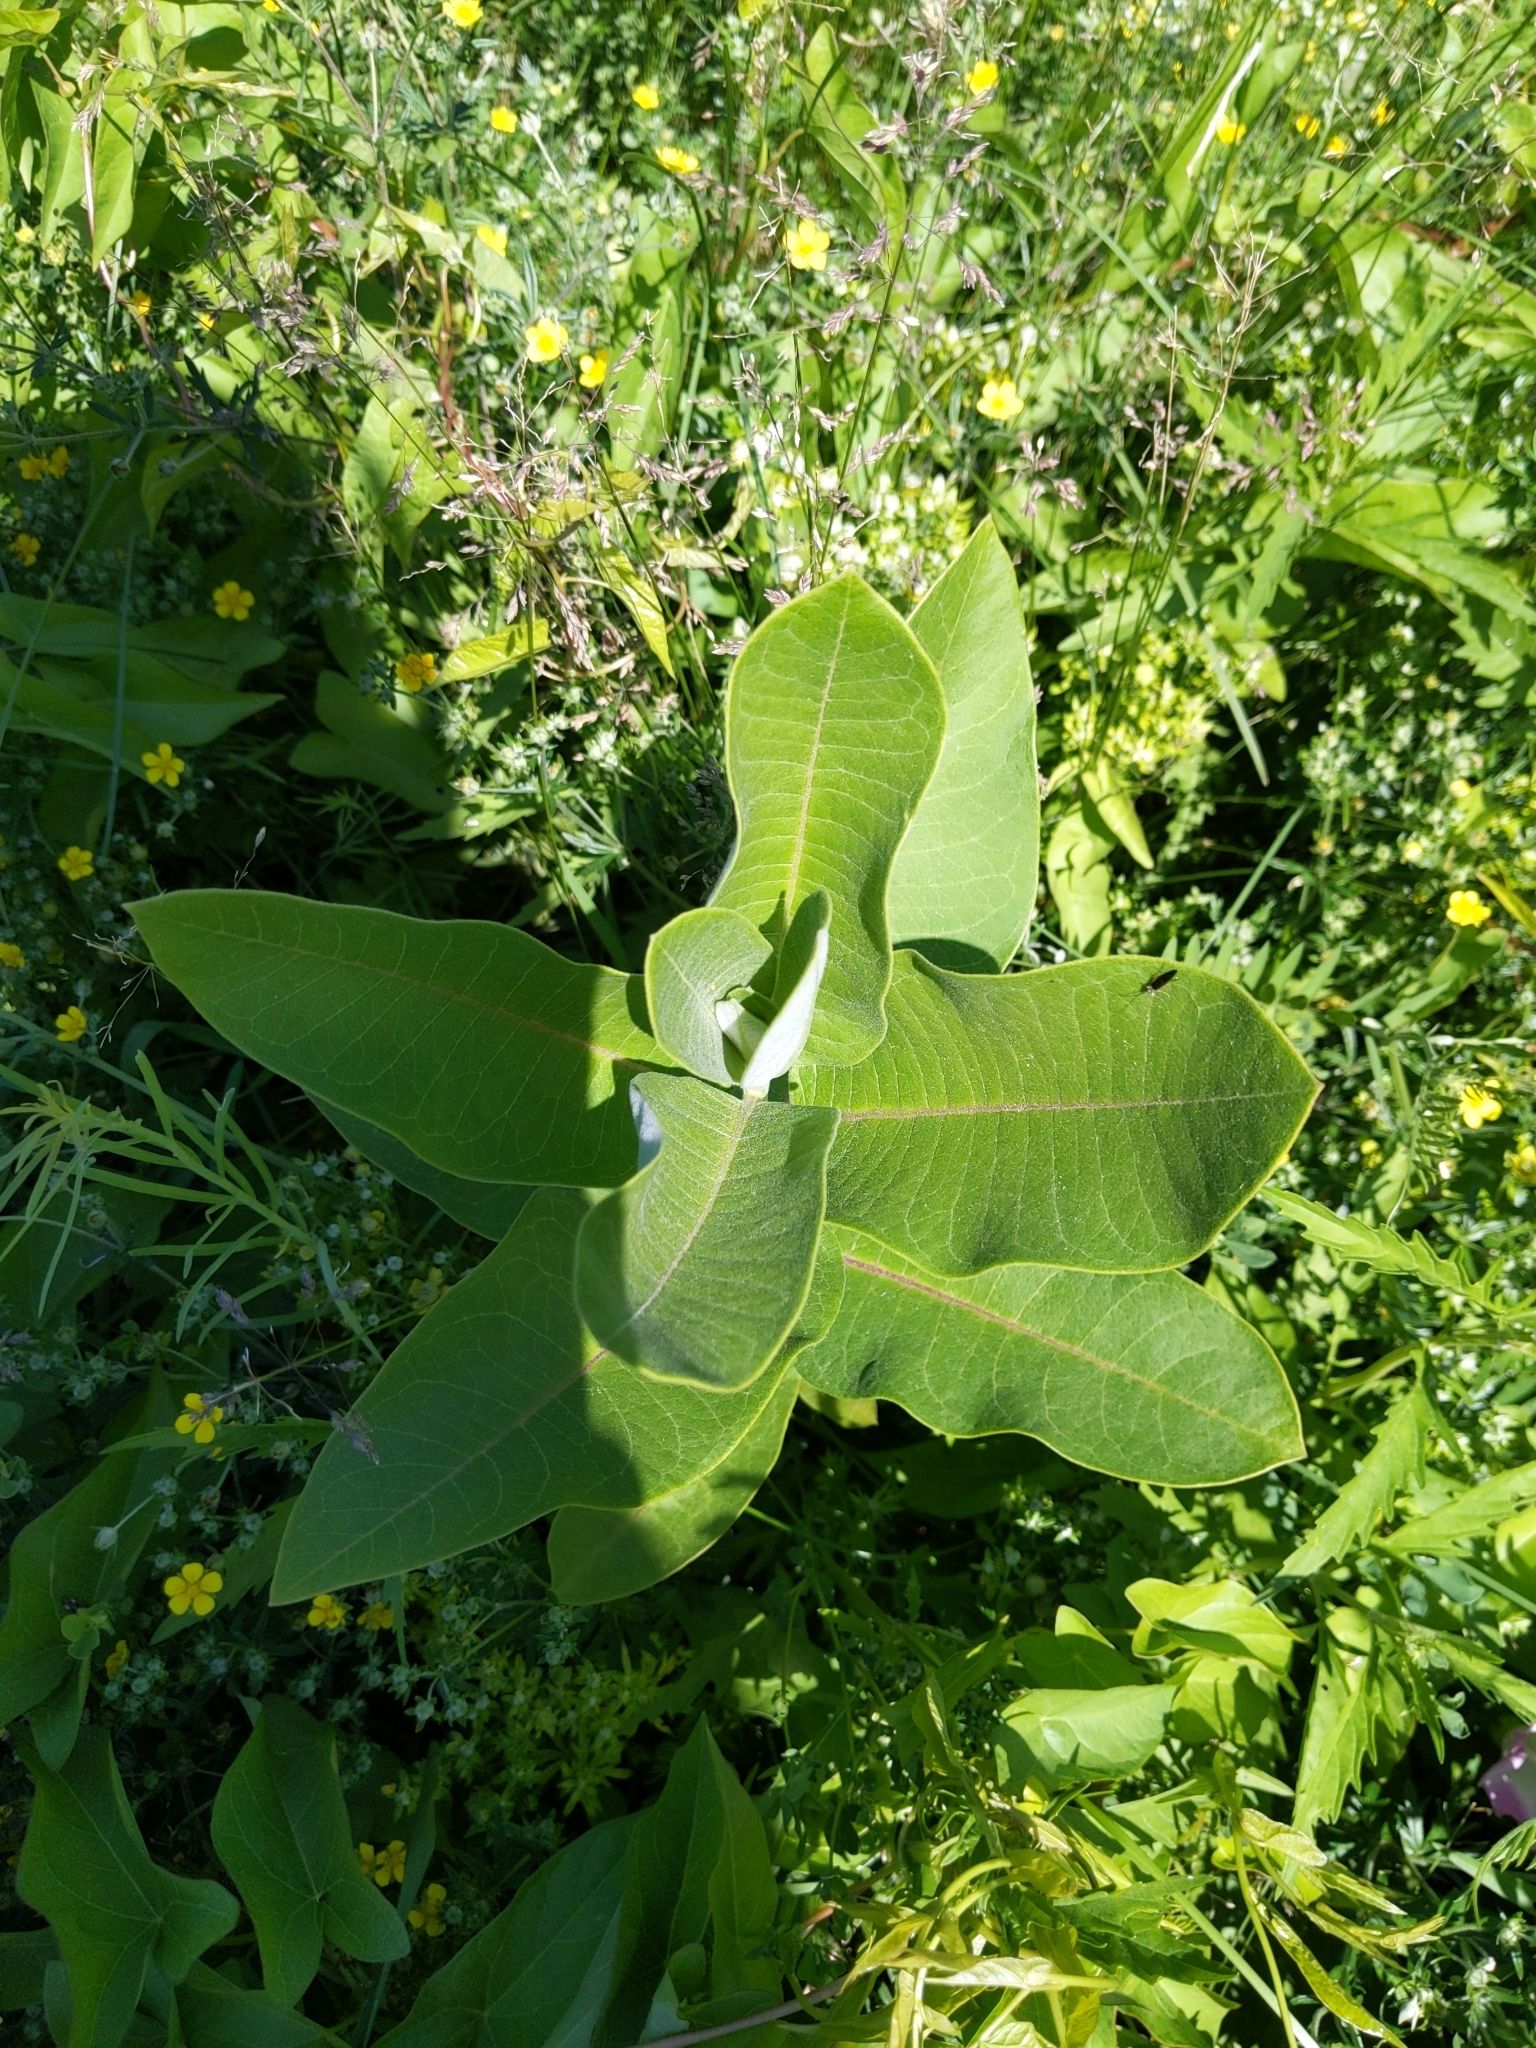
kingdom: Plantae
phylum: Tracheophyta
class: Magnoliopsida
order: Gentianales
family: Apocynaceae
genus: Asclepias
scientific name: Asclepias syriaca
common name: Common milkweed
